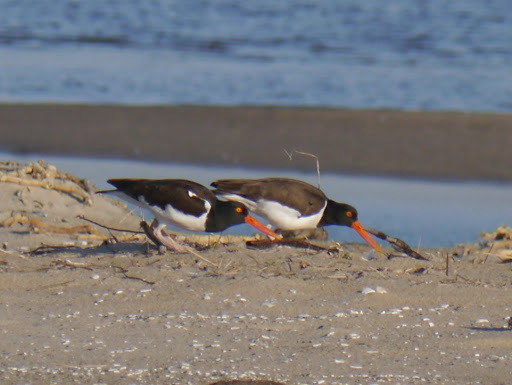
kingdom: Animalia
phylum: Chordata
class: Aves
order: Charadriiformes
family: Haematopodidae
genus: Haematopus
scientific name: Haematopus palliatus
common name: American oystercatcher
